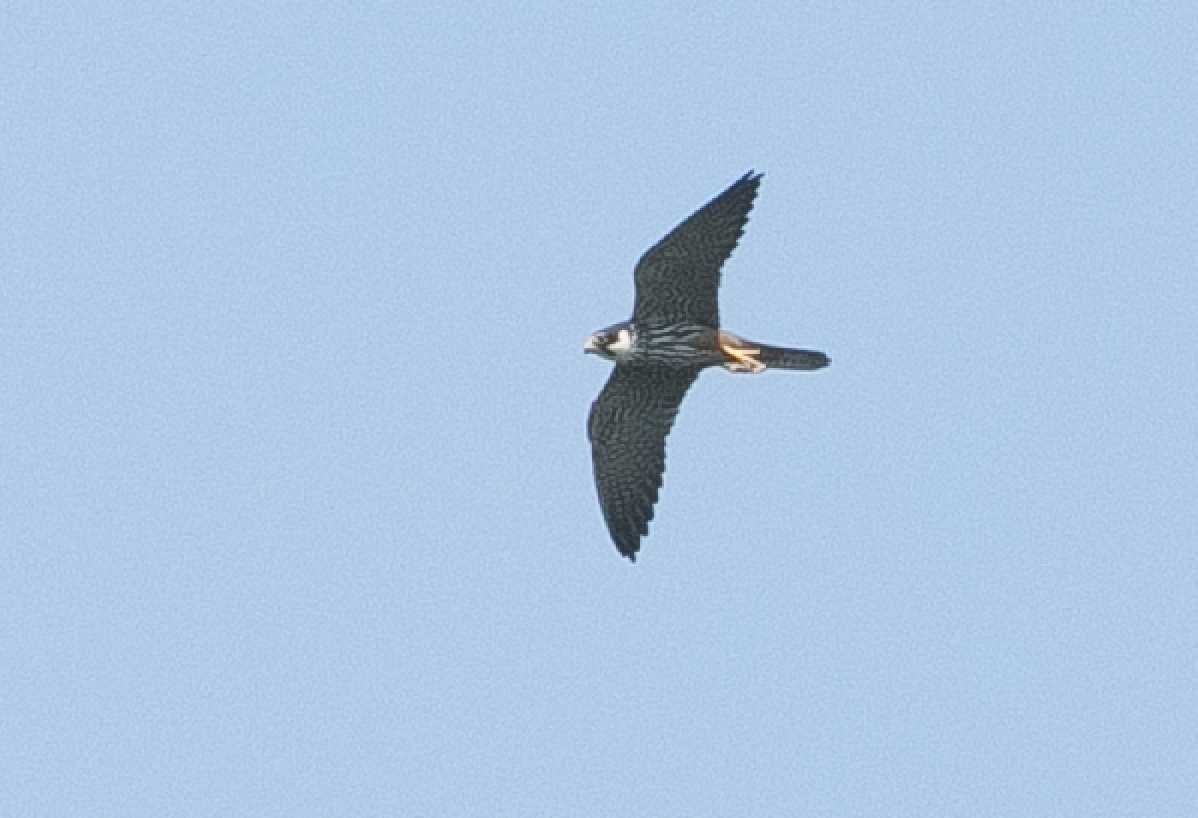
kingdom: Animalia
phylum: Chordata
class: Aves
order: Falconiformes
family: Falconidae
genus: Falco
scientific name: Falco subbuteo
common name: Eurasian hobby
